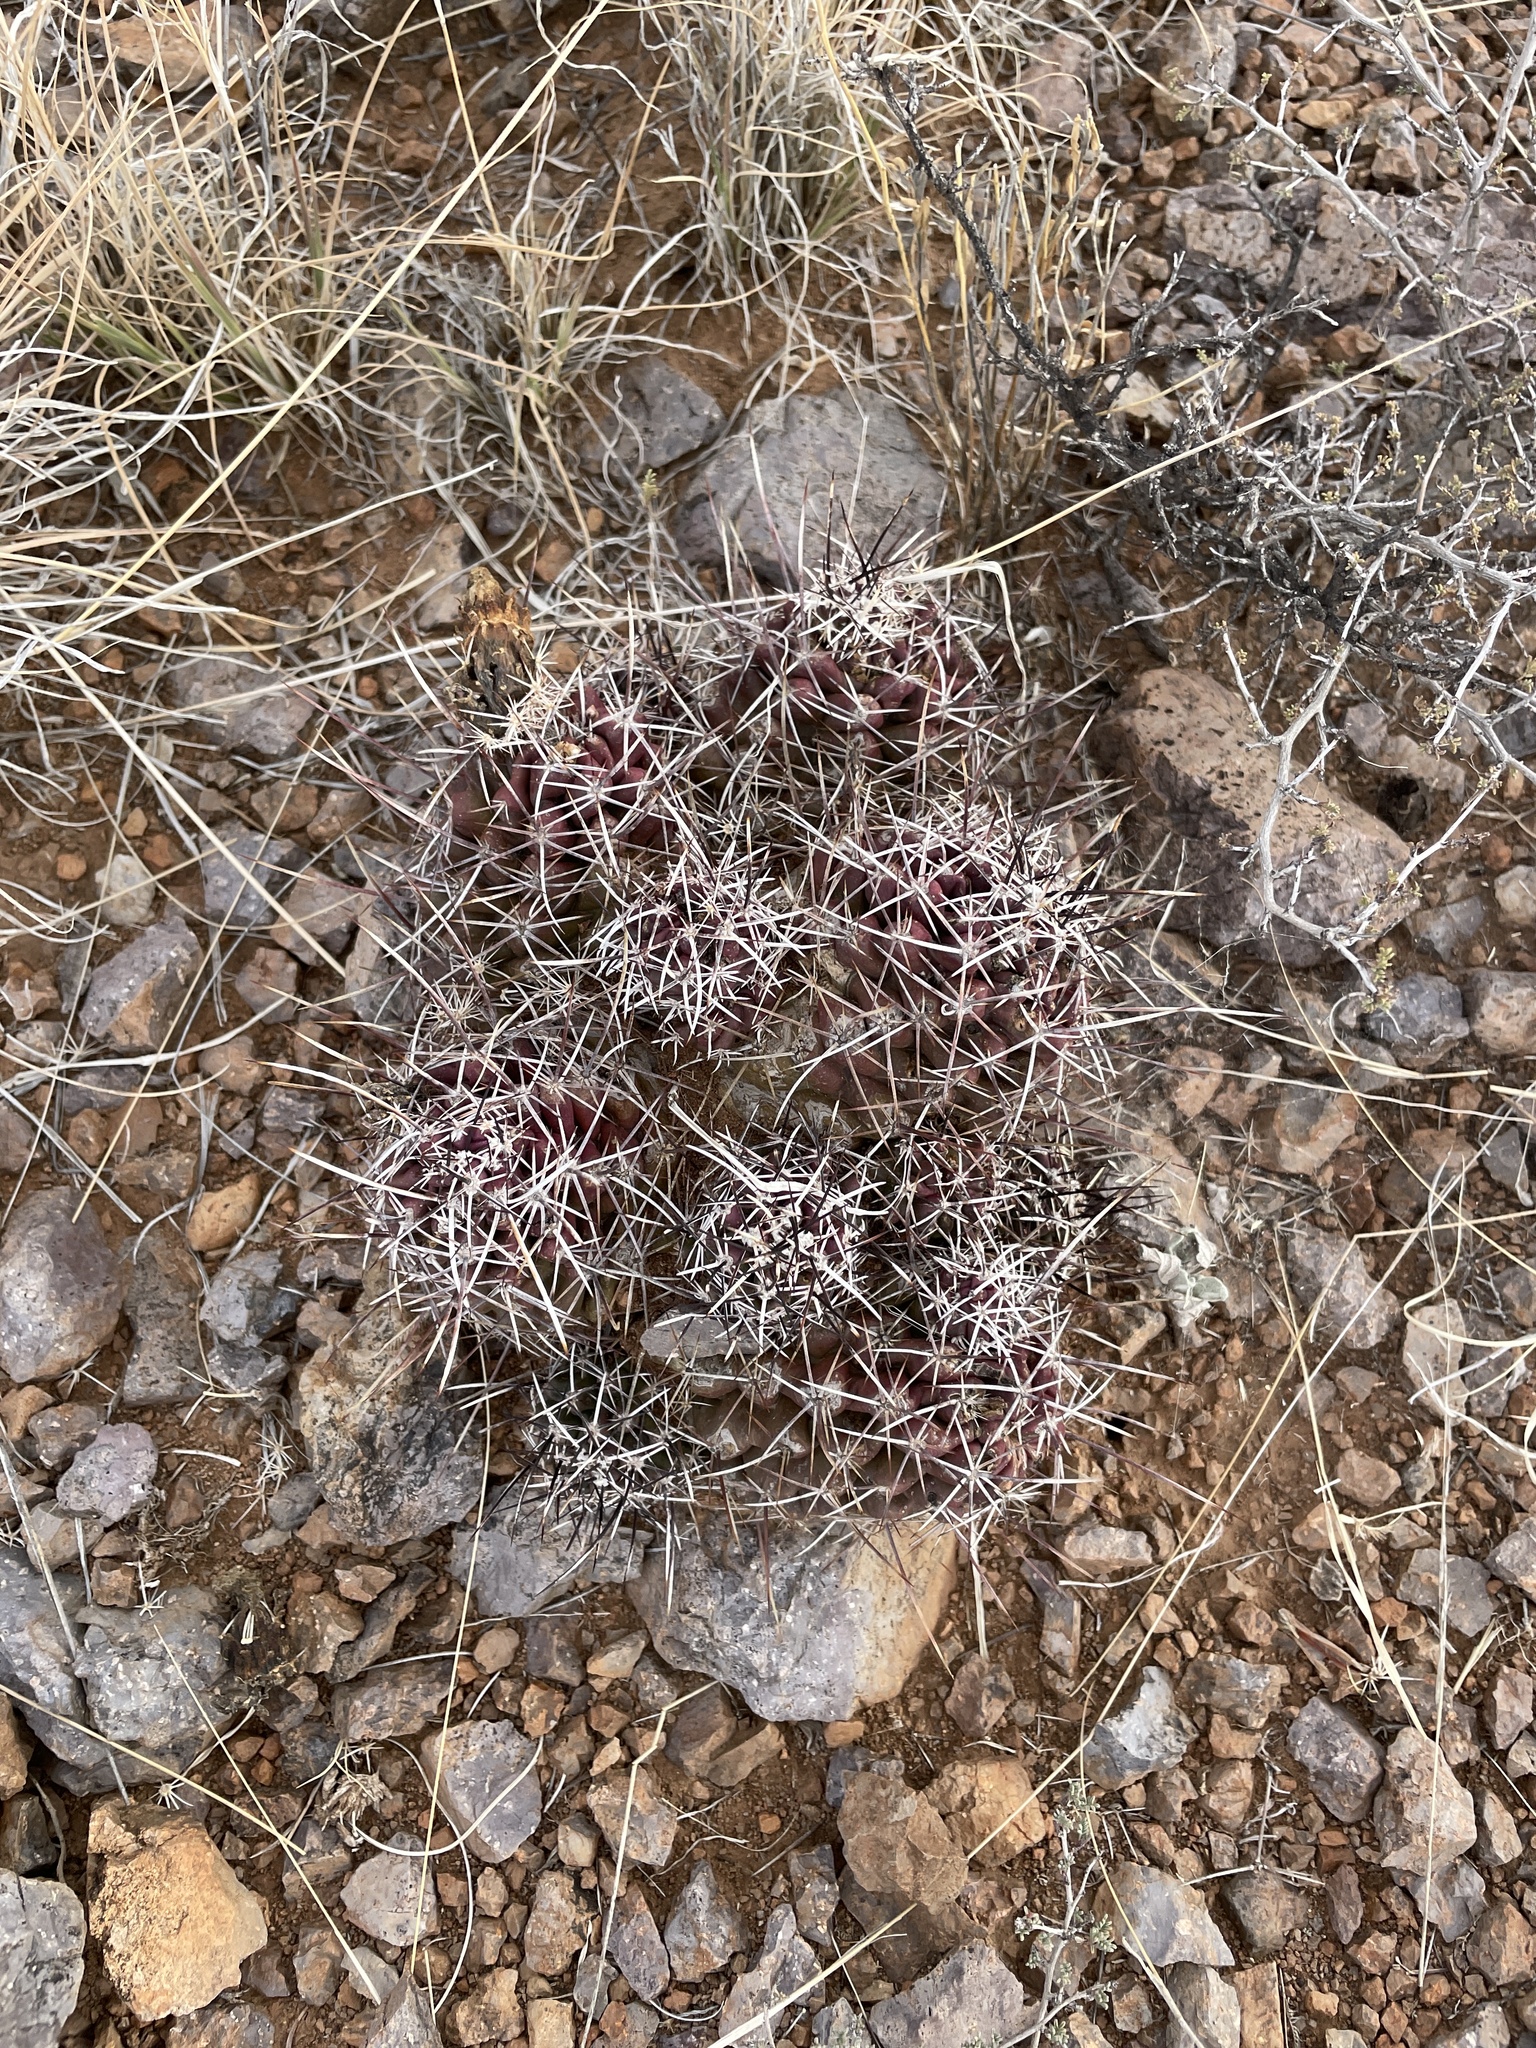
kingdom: Plantae
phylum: Tracheophyta
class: Magnoliopsida
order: Caryophyllales
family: Cactaceae
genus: Echinocereus
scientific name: Echinocereus fendleri
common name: Fendler's hedgehog cactus
